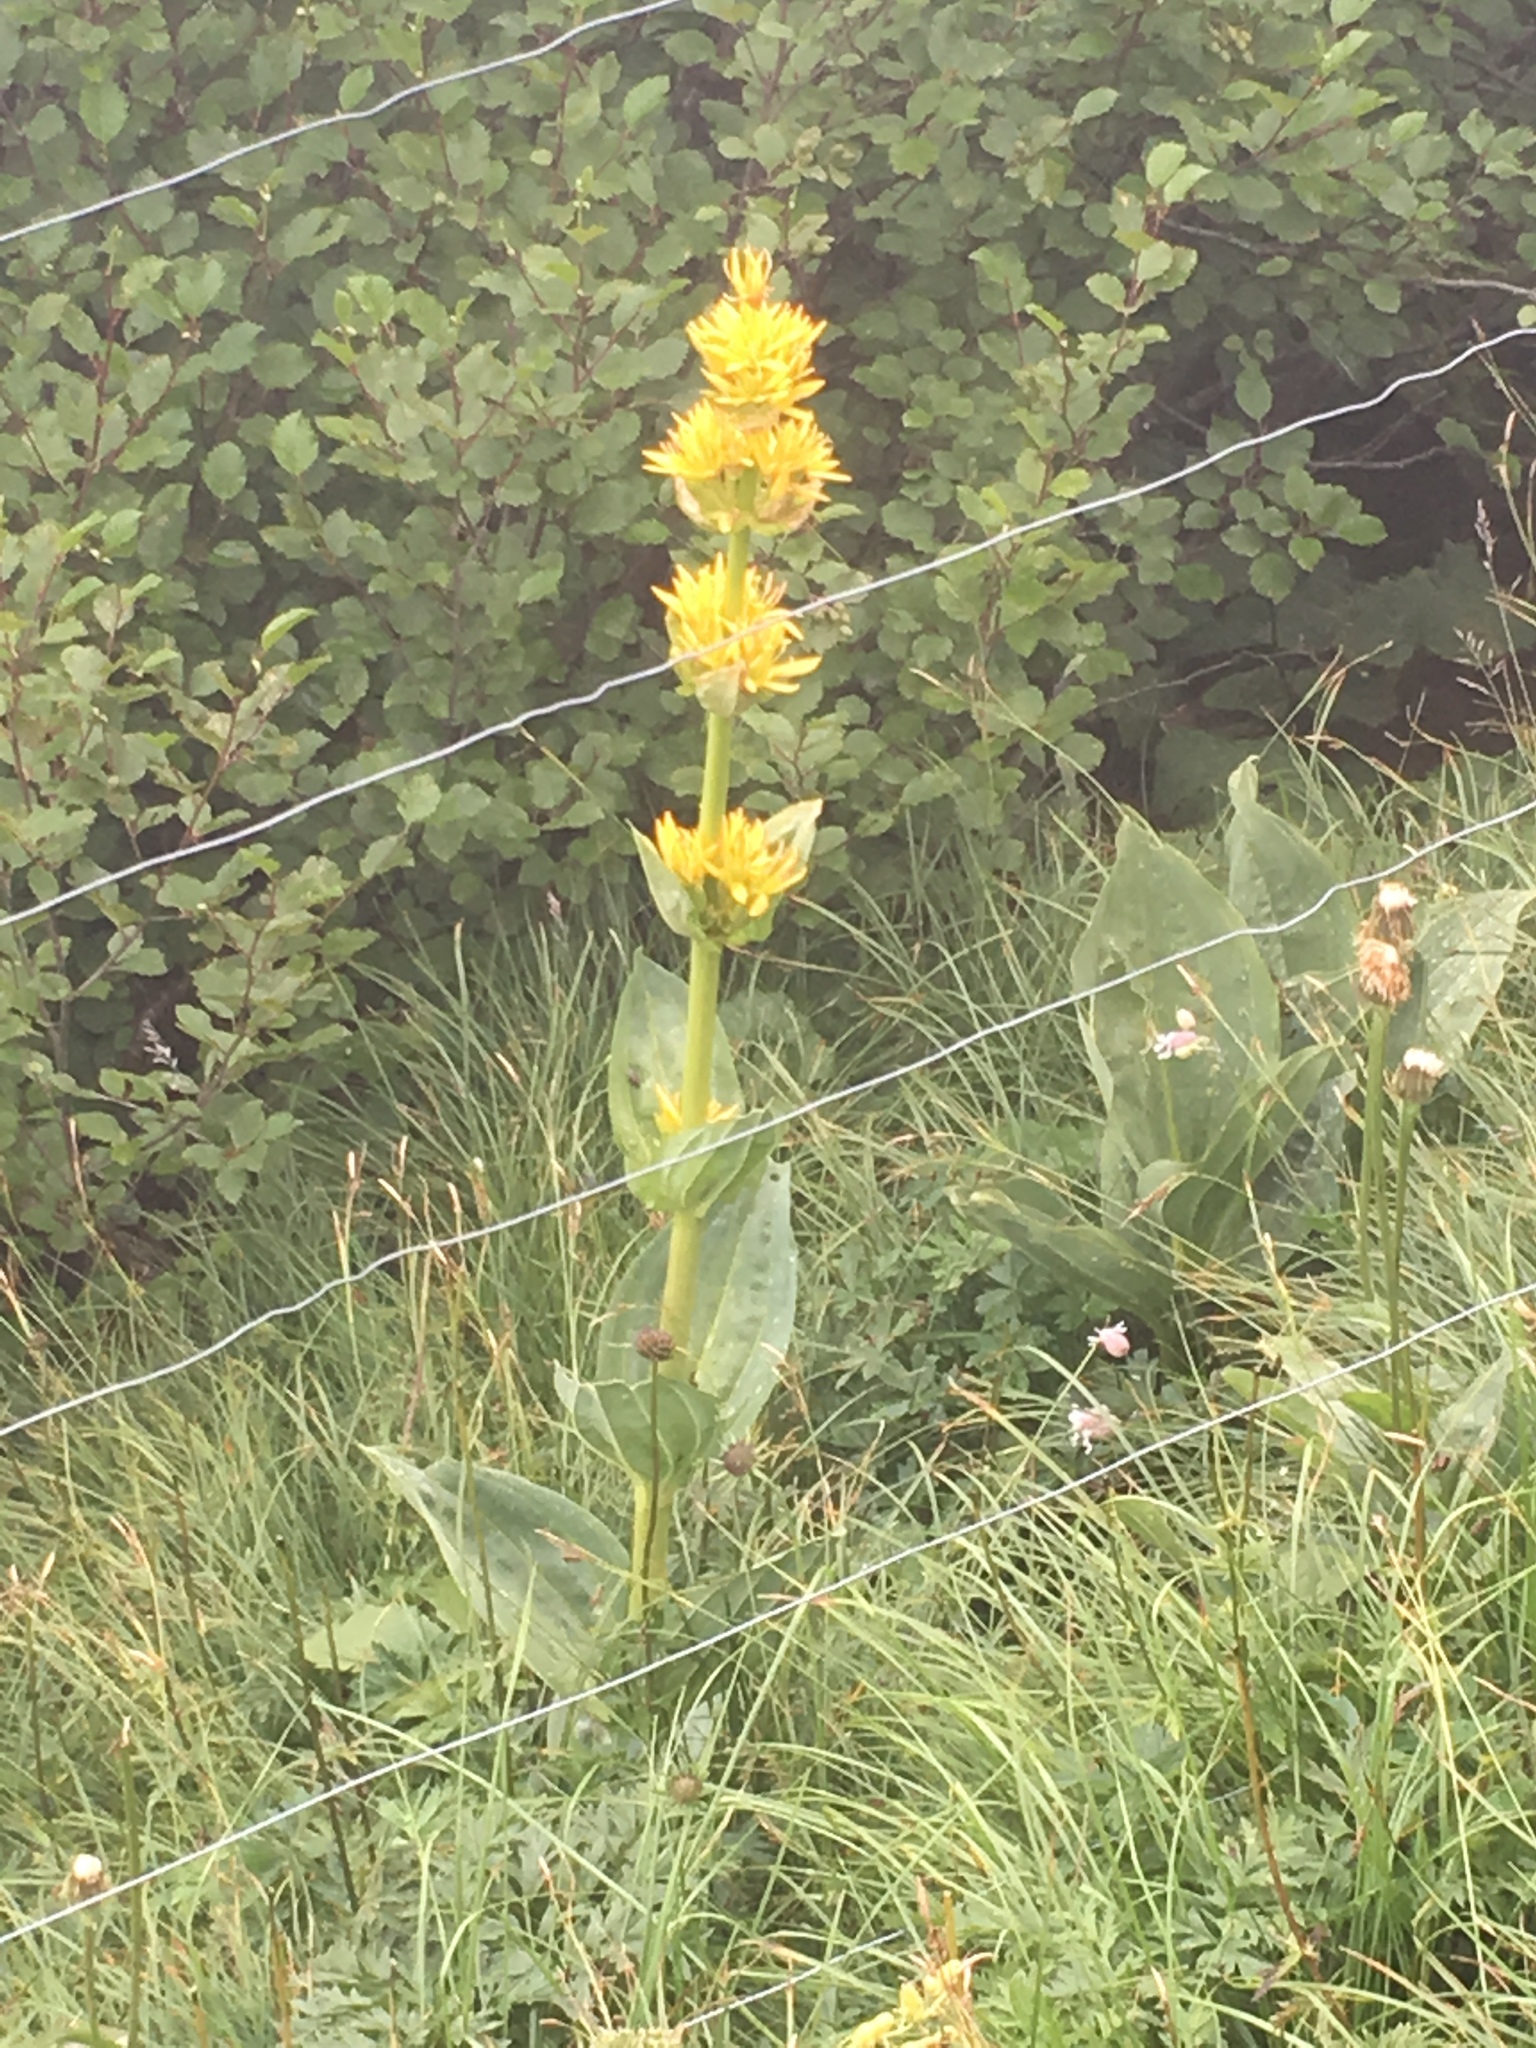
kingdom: Plantae
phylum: Tracheophyta
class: Magnoliopsida
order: Gentianales
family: Gentianaceae
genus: Gentiana
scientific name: Gentiana lutea
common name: Great yellow gentian
